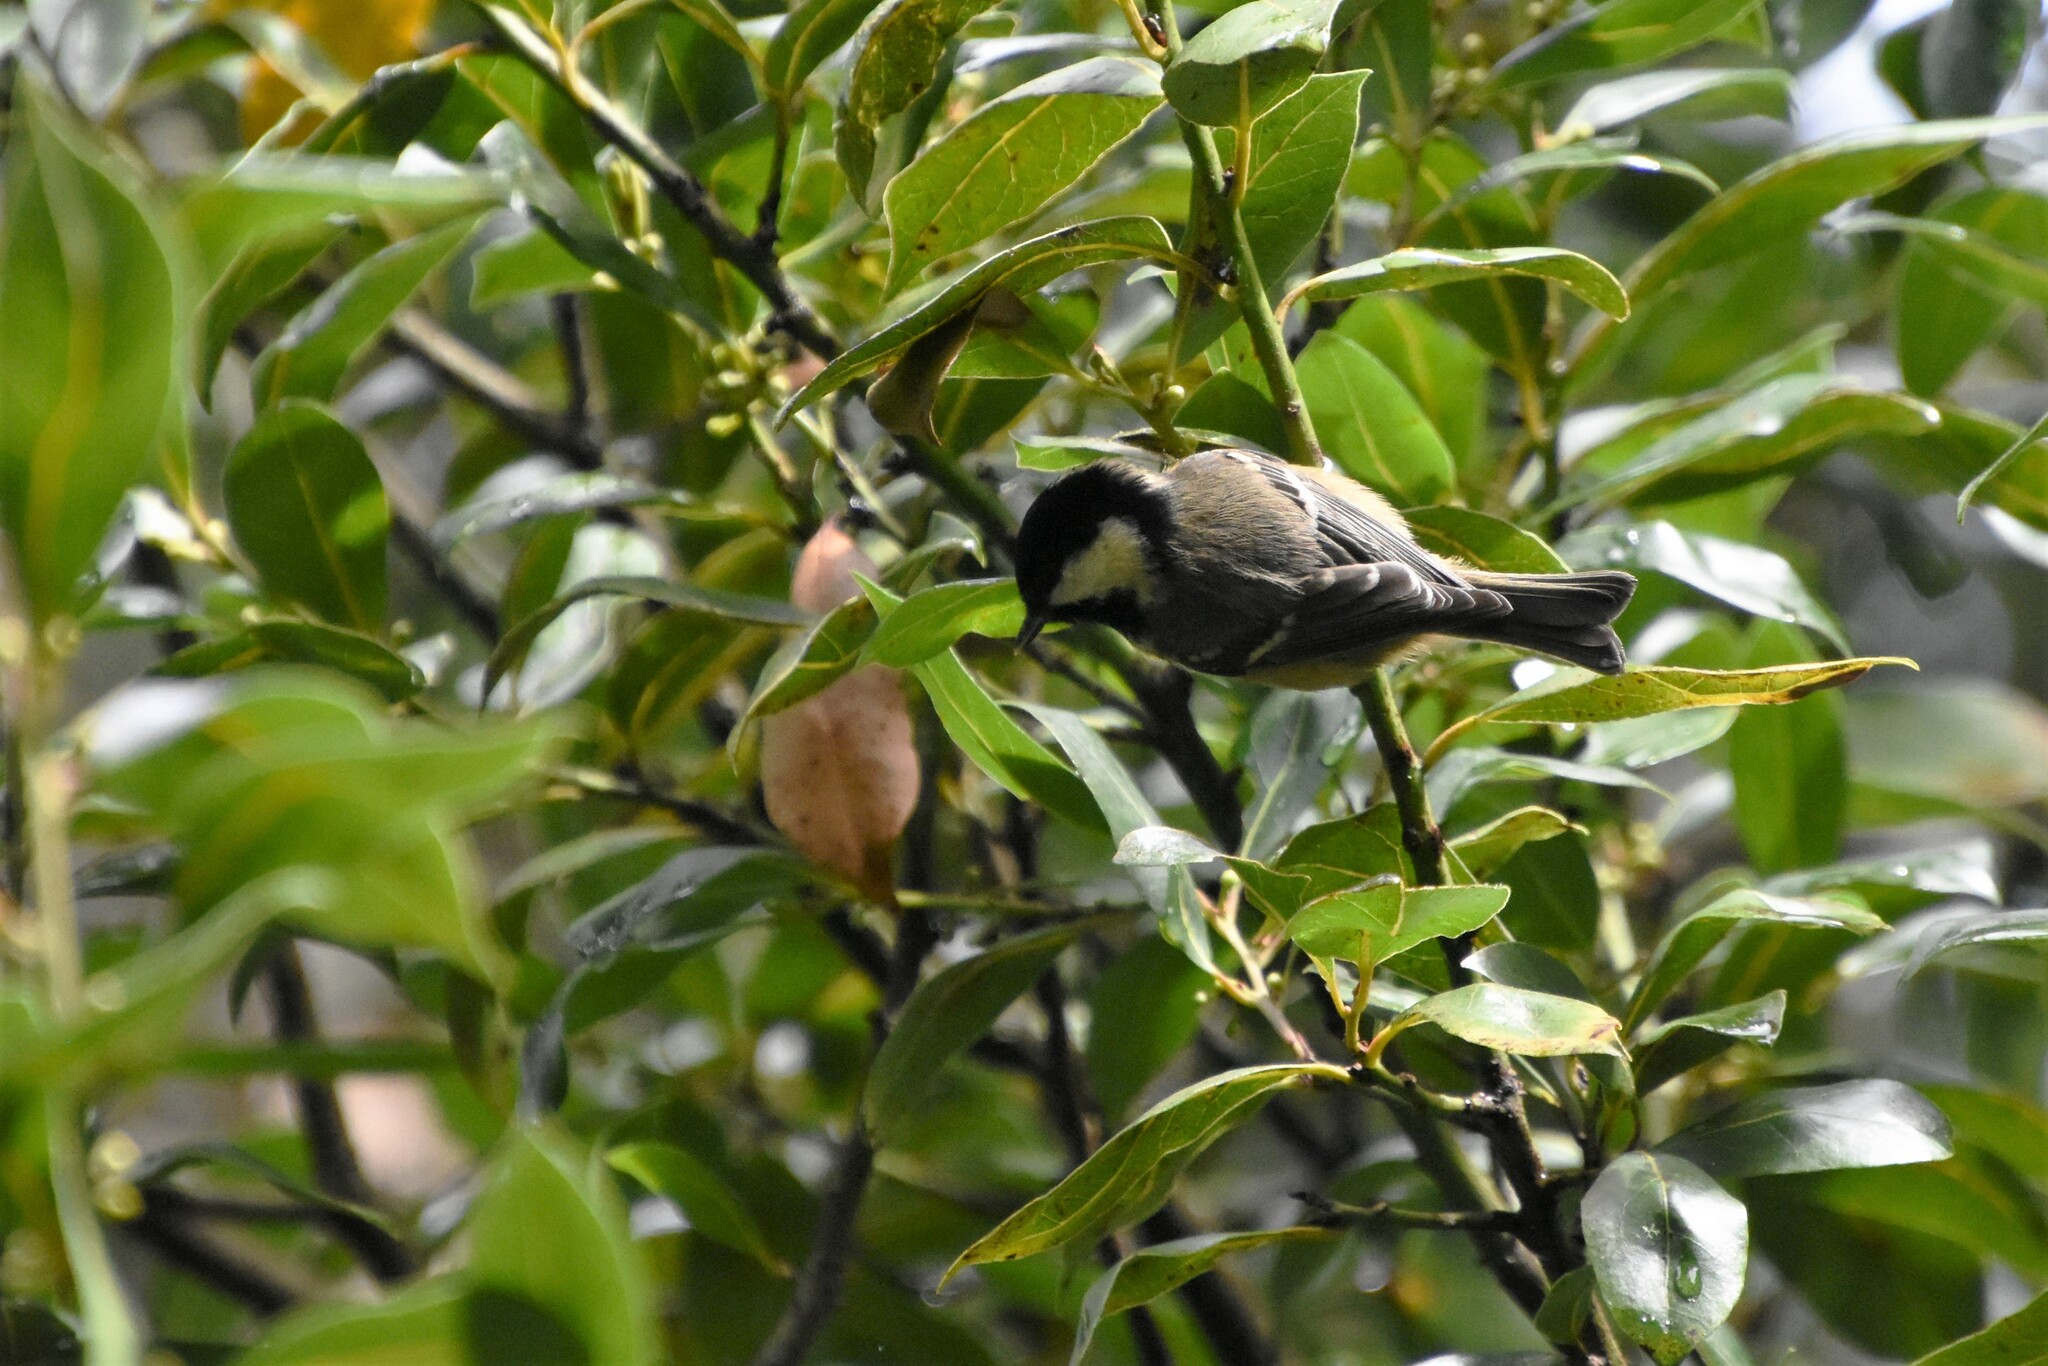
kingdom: Animalia
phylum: Chordata
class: Aves
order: Passeriformes
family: Paridae
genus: Periparus
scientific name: Periparus ater
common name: Coal tit
